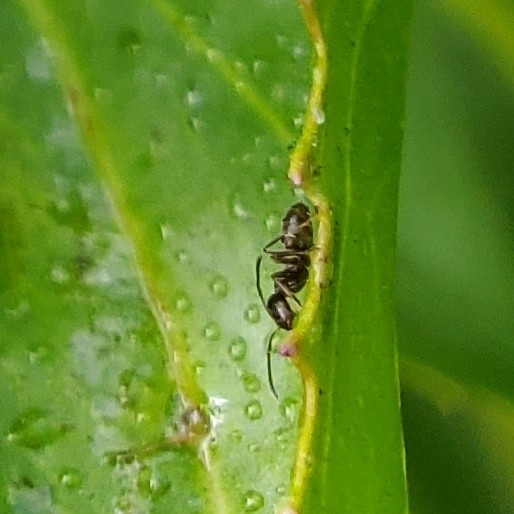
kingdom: Animalia
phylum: Arthropoda
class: Insecta
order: Hymenoptera
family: Formicidae
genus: Linepithema
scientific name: Linepithema humile
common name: Argentine ant
